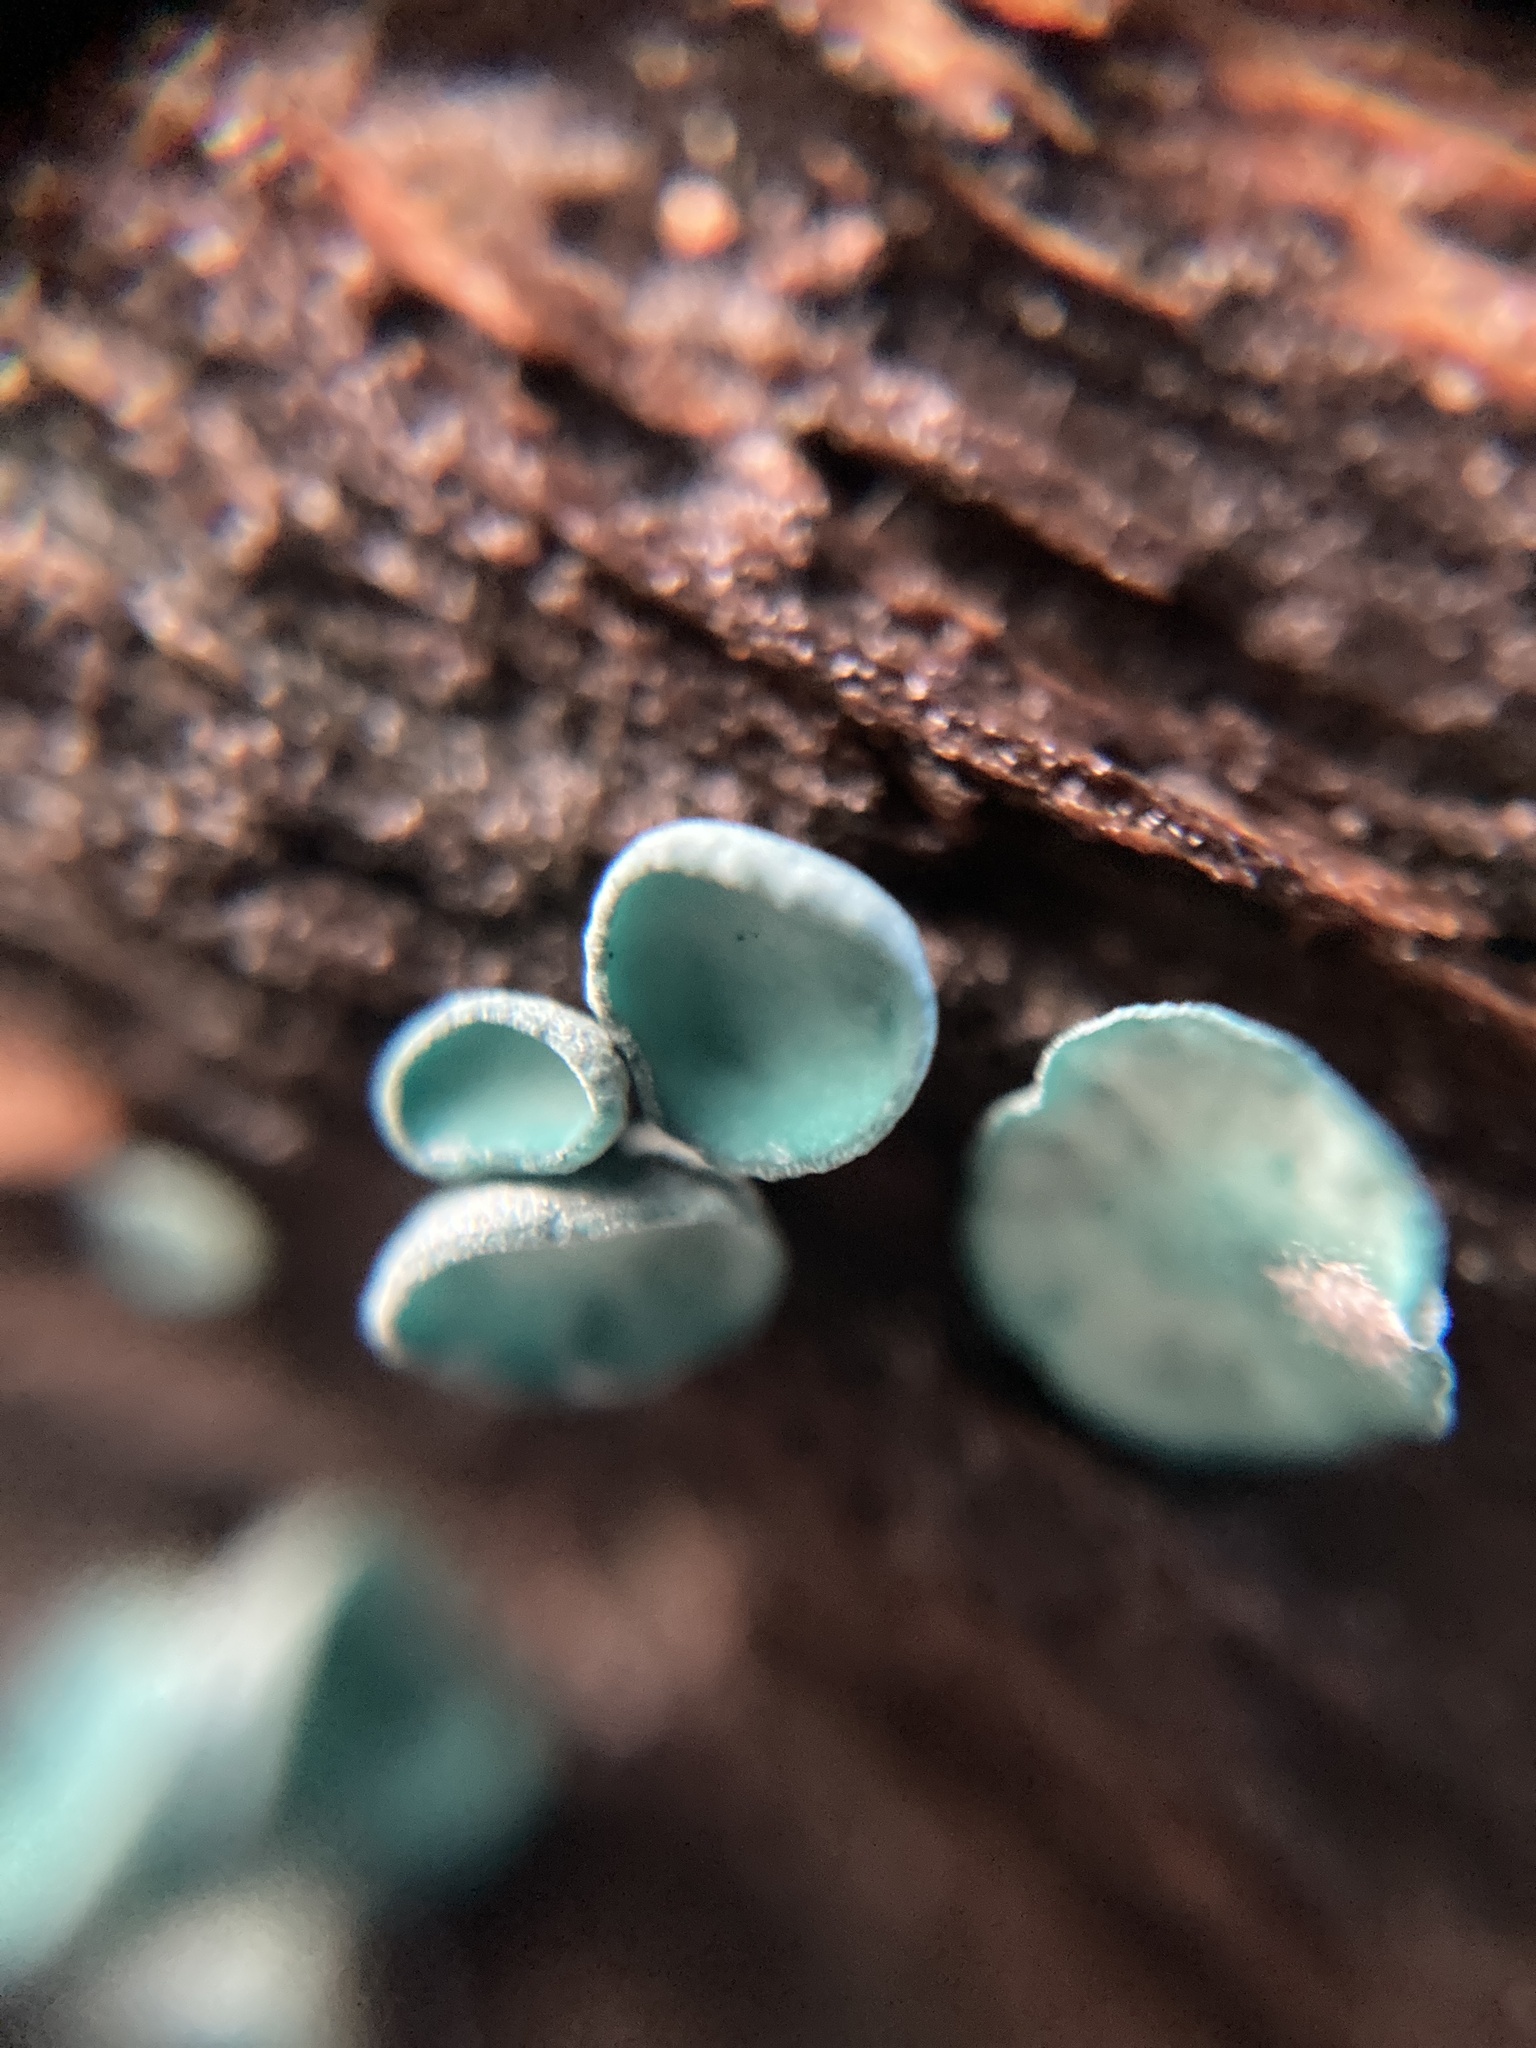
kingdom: Fungi
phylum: Ascomycota
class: Leotiomycetes
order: Helotiales
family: Chlorociboriaceae
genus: Chlorociboria
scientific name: Chlorociboria aeruginascens
